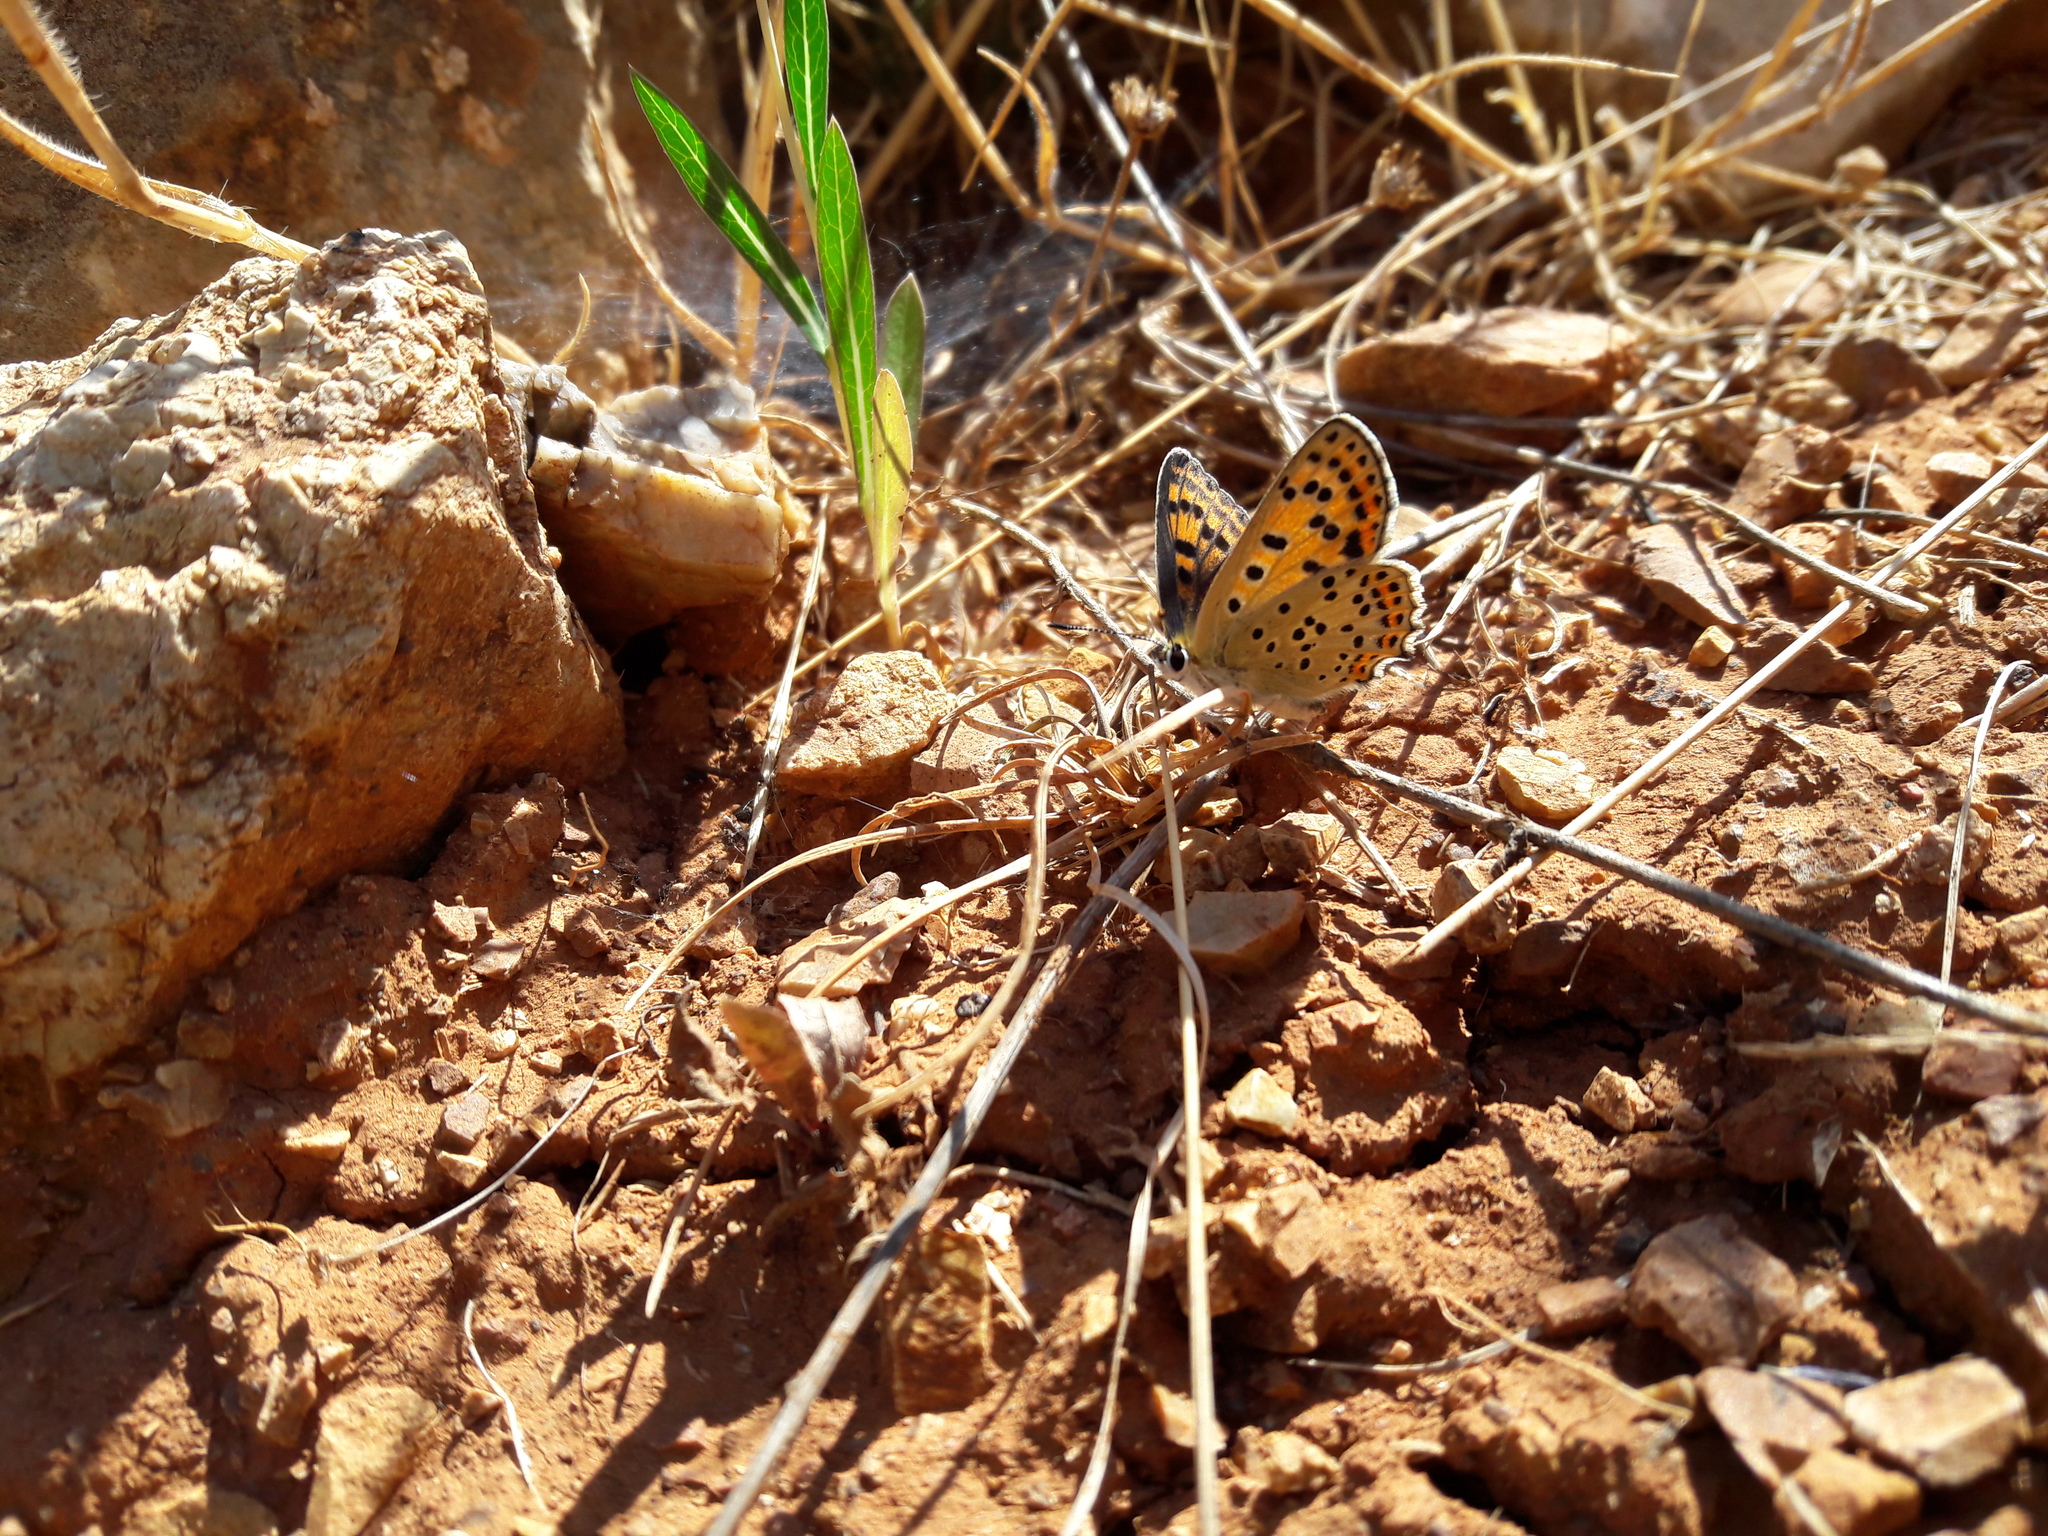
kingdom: Animalia
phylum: Arthropoda
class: Insecta
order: Lepidoptera
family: Lycaenidae
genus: Loweia
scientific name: Loweia tityrus
